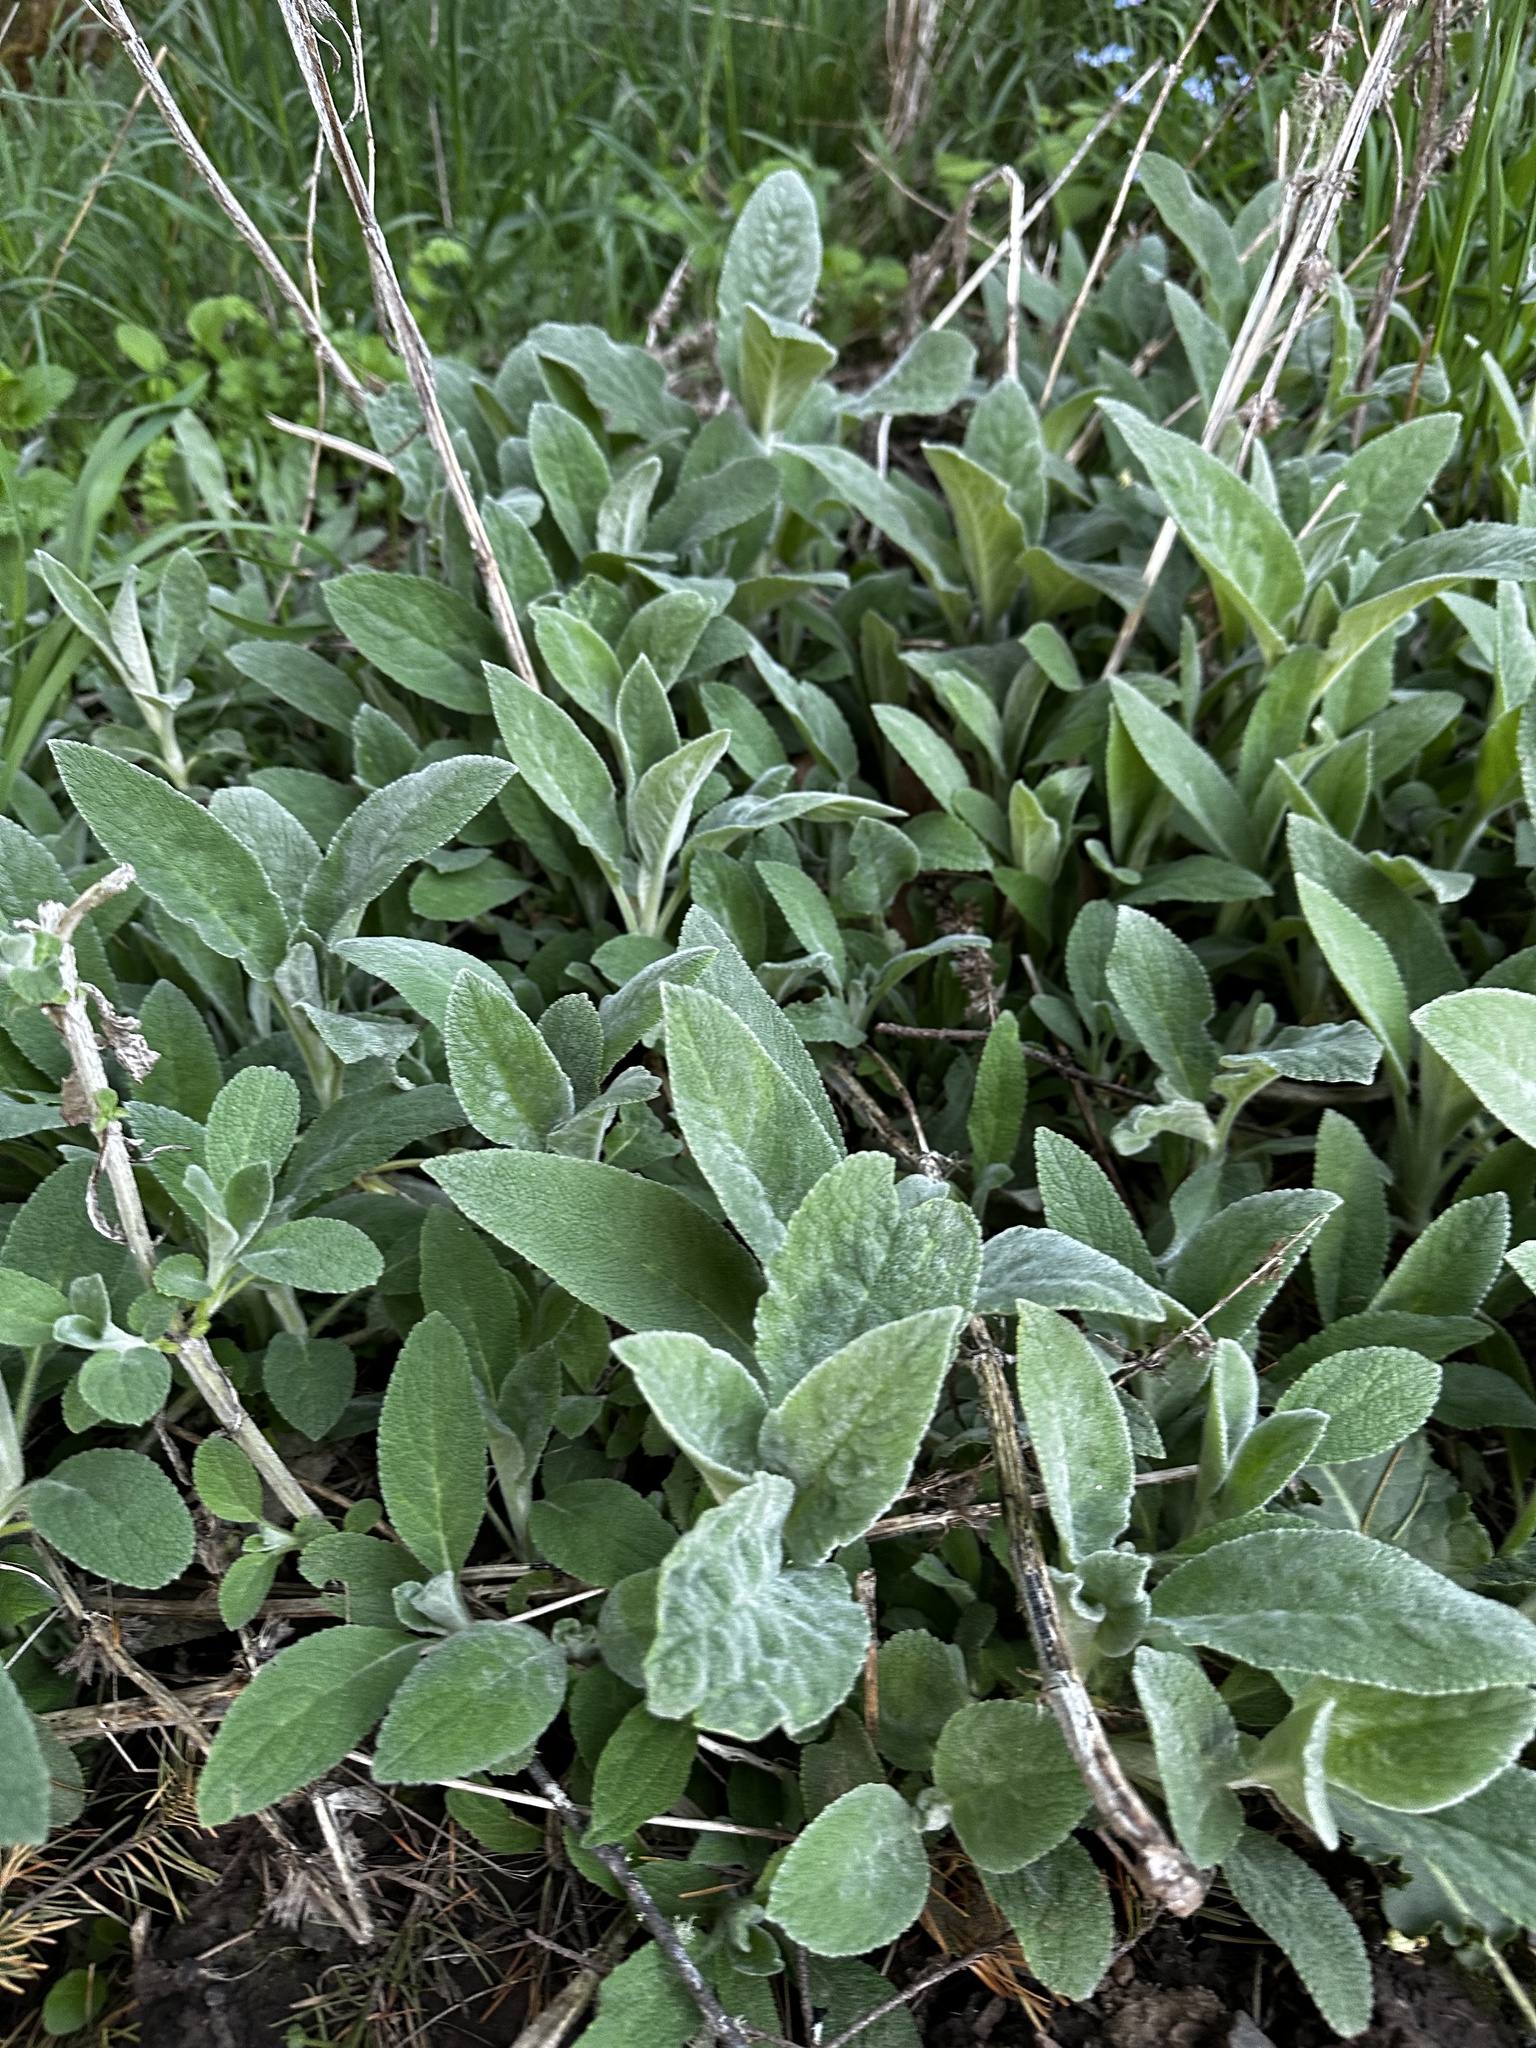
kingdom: Plantae
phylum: Tracheophyta
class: Magnoliopsida
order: Lamiales
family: Lamiaceae
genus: Stachys
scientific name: Stachys byzantina
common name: Lamb's-ear
